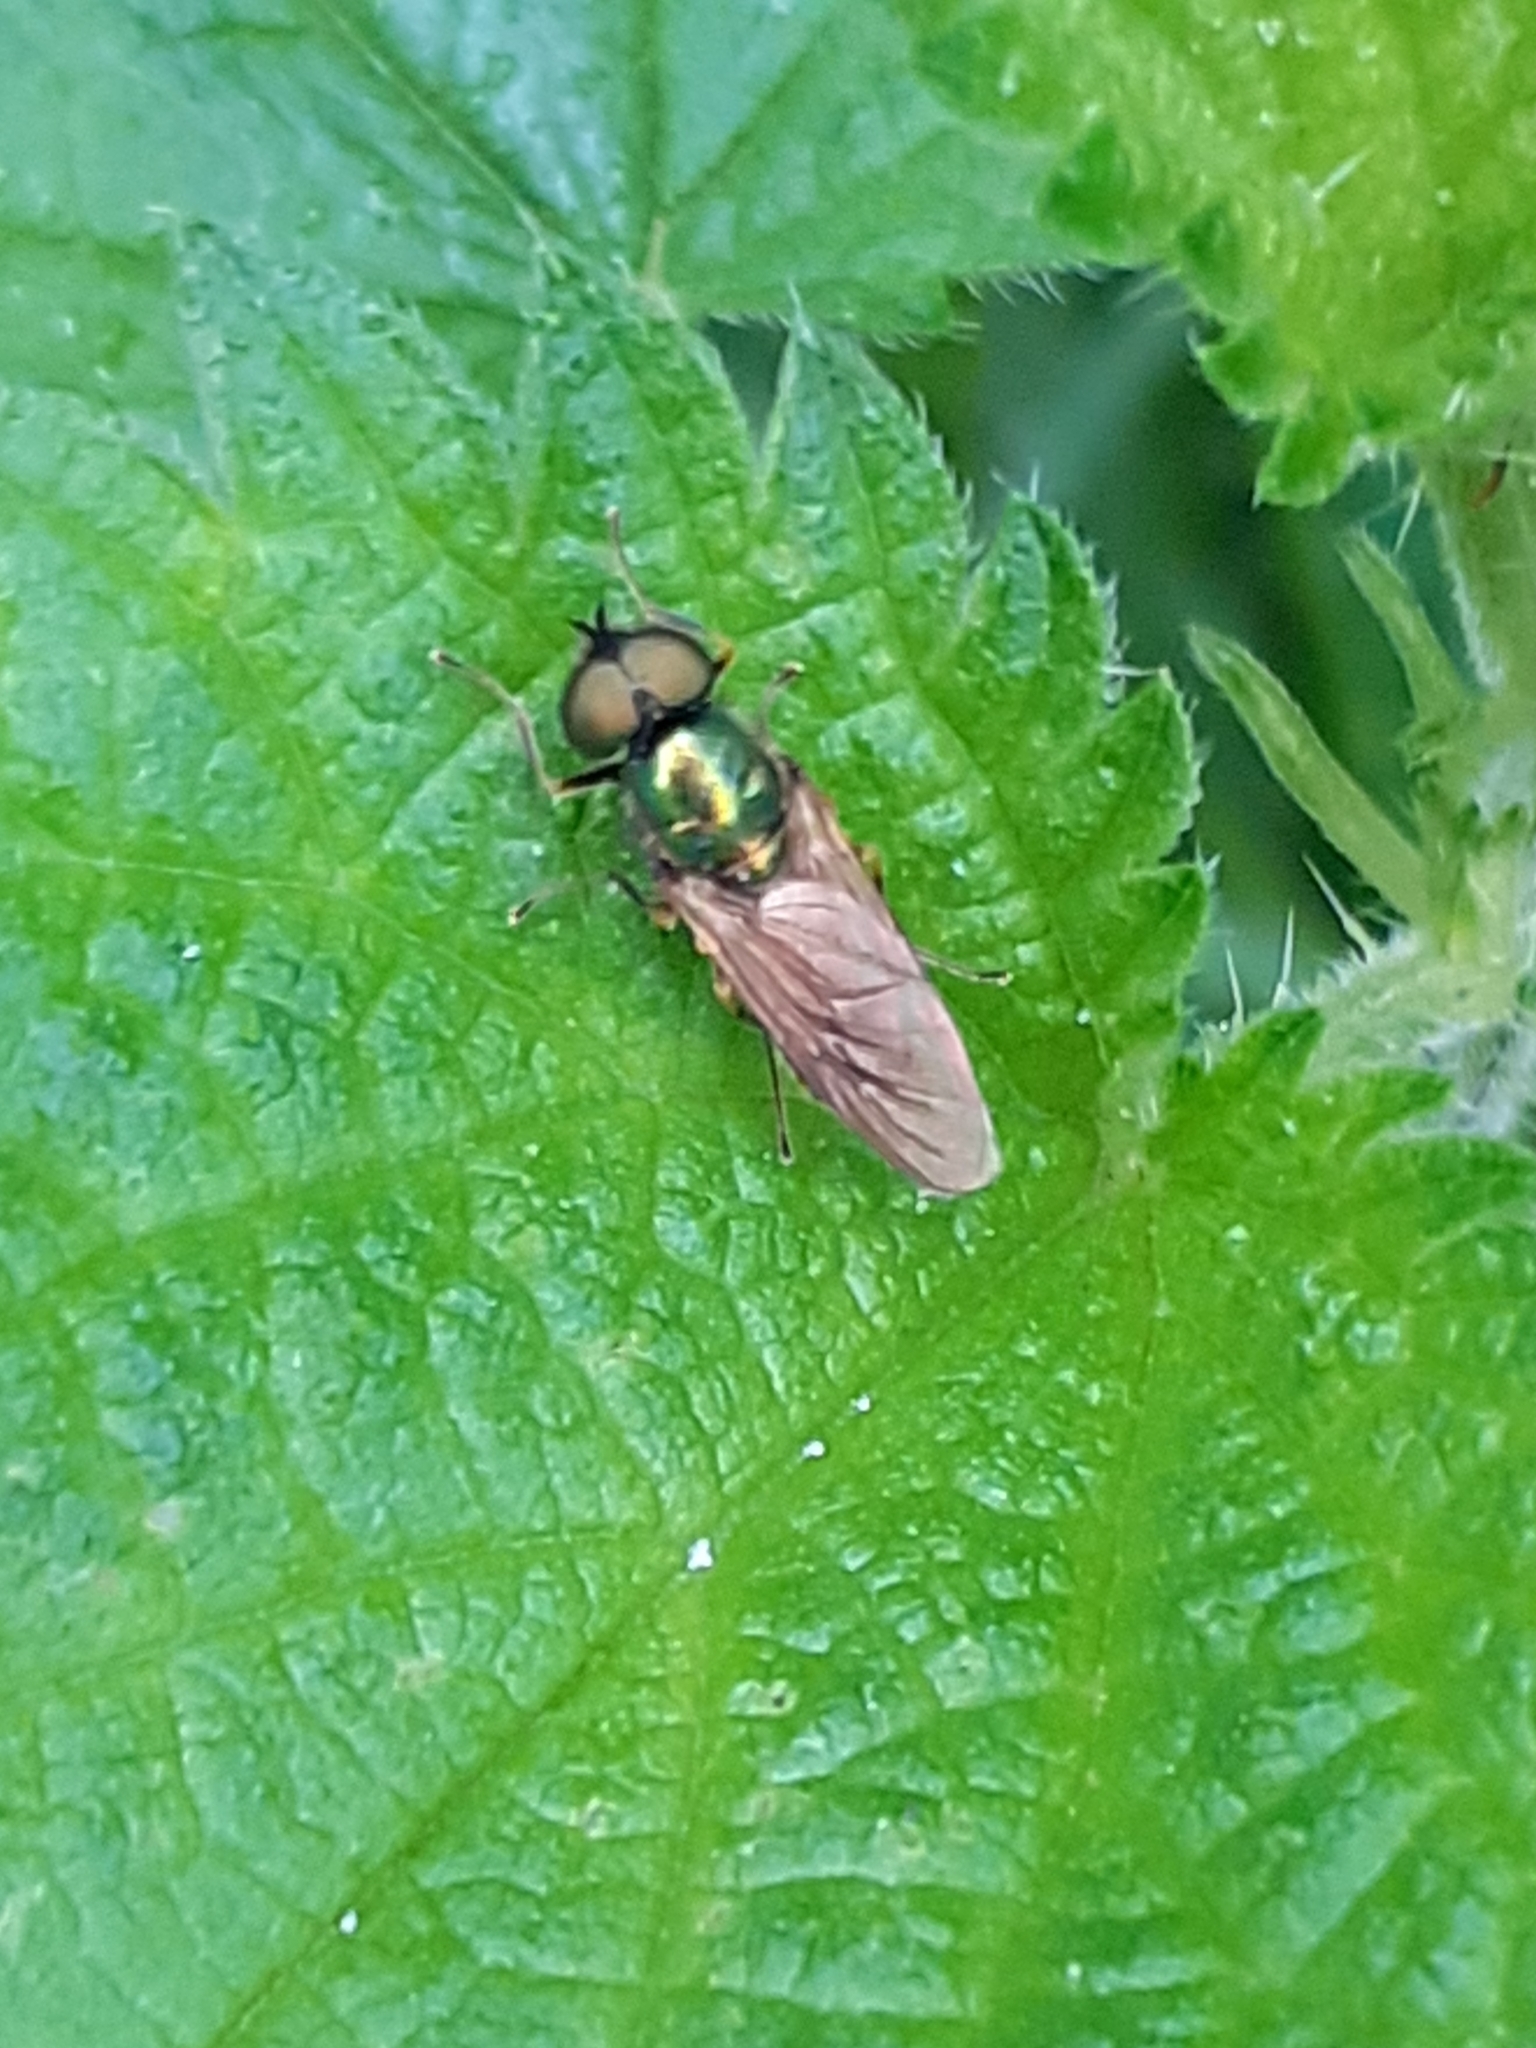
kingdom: Animalia
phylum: Arthropoda
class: Insecta
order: Diptera
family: Stratiomyidae
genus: Chloromyia
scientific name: Chloromyia formosa
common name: Soldier fly
